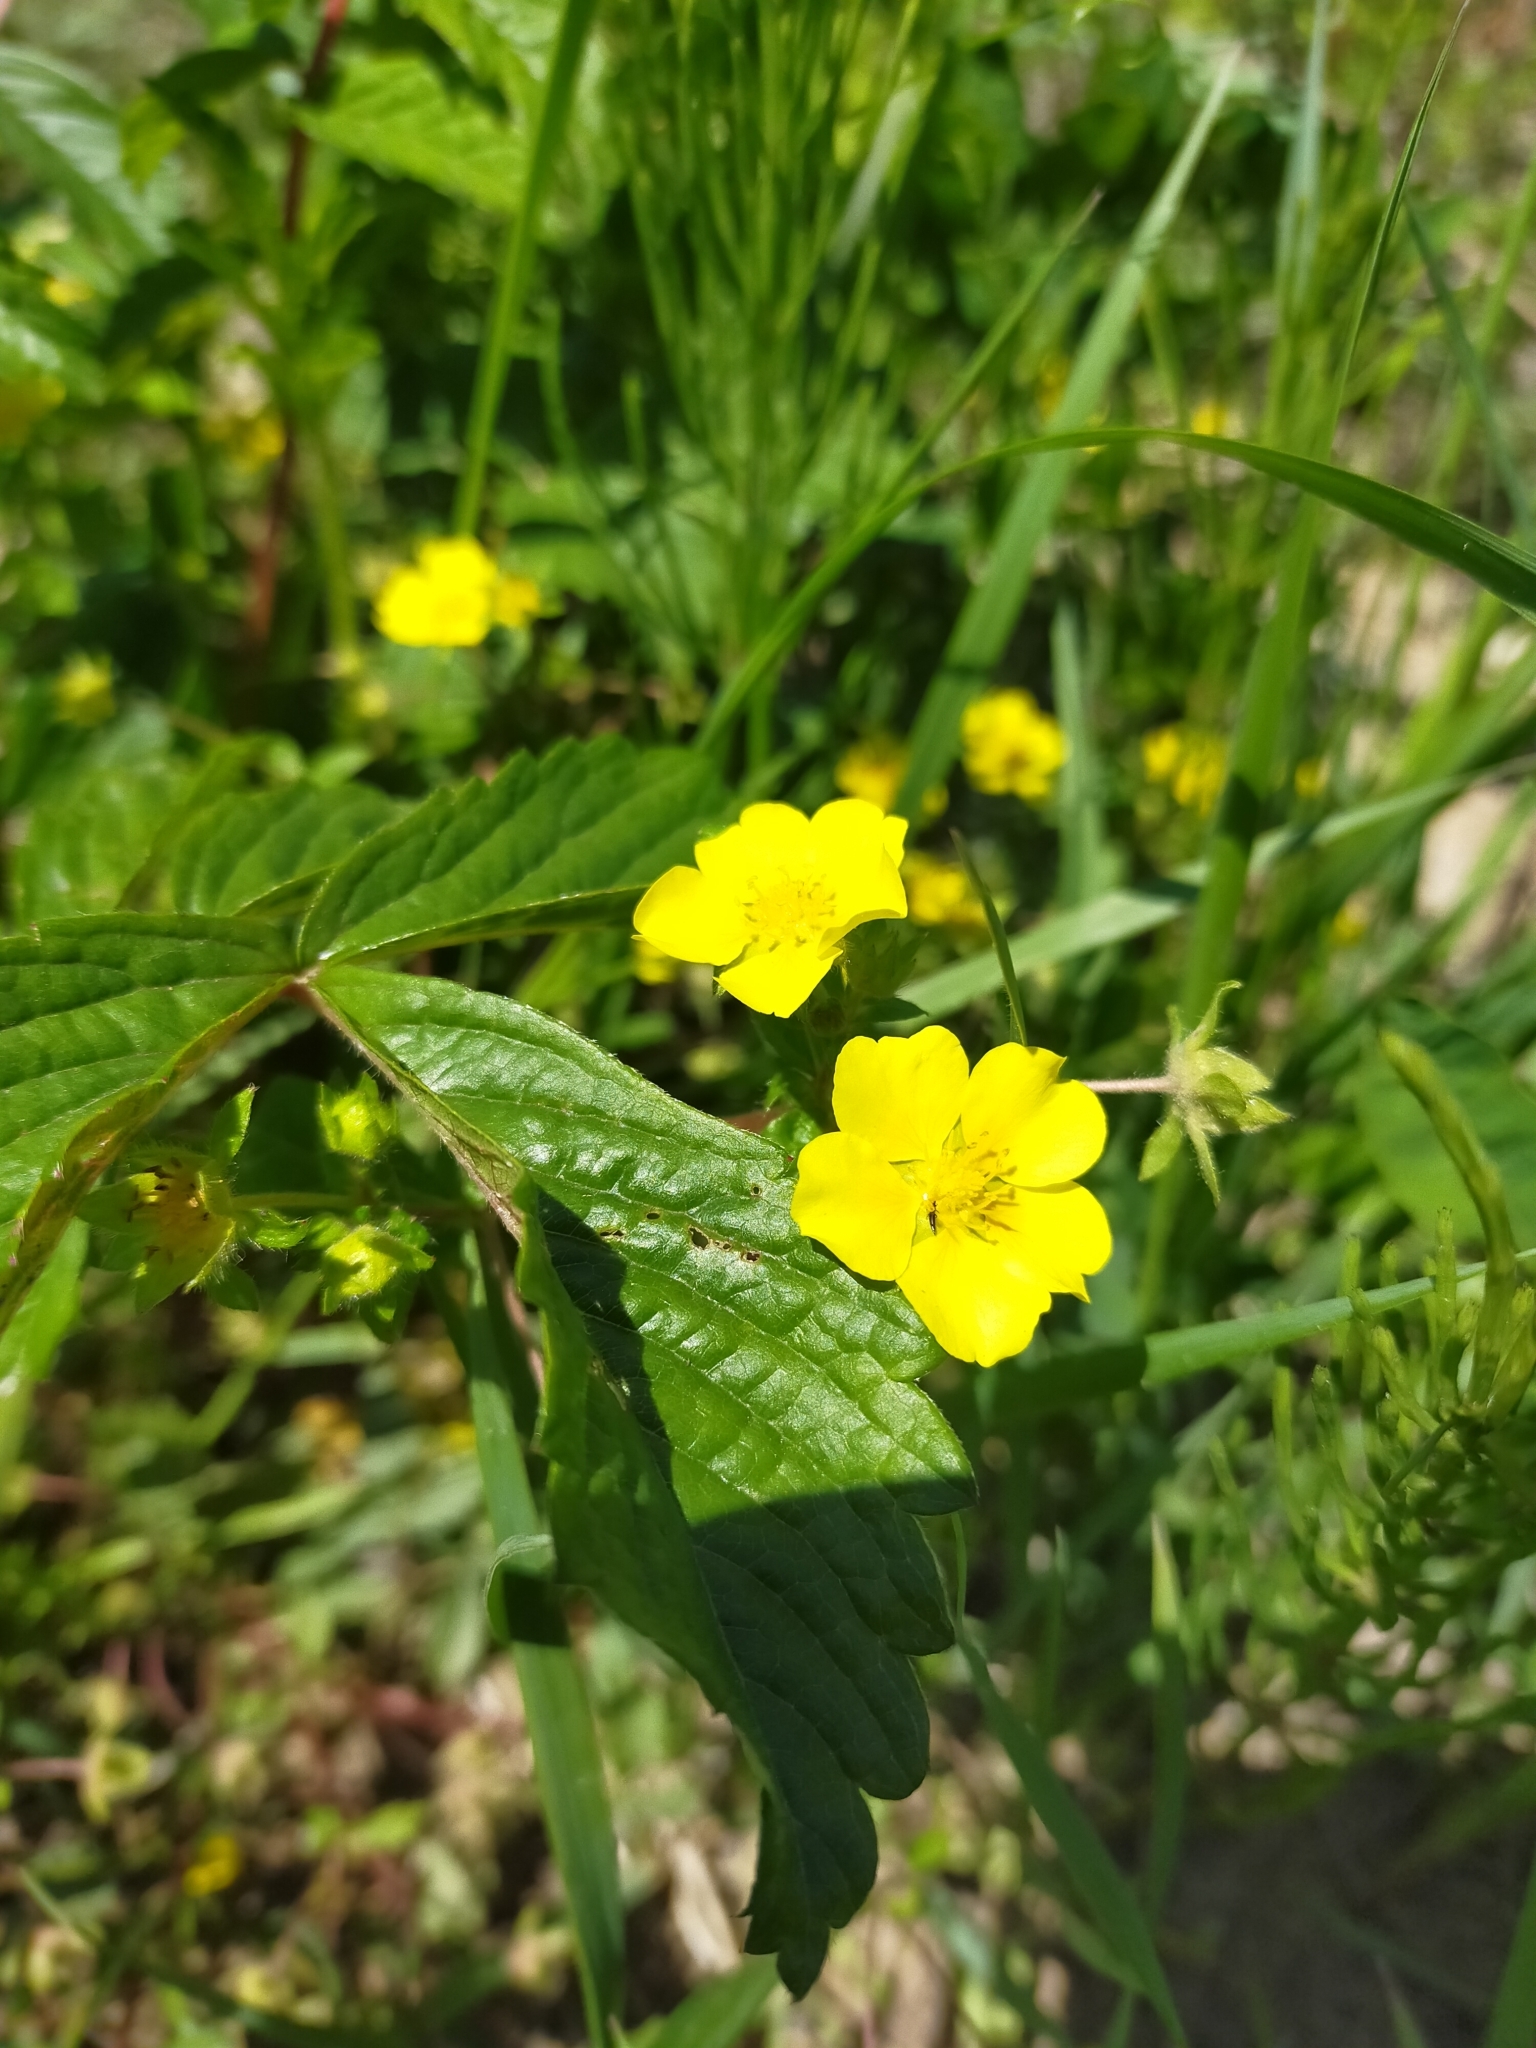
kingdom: Plantae
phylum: Tracheophyta
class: Magnoliopsida
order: Rosales
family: Rosaceae
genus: Potentilla
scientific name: Potentilla fragarioides
